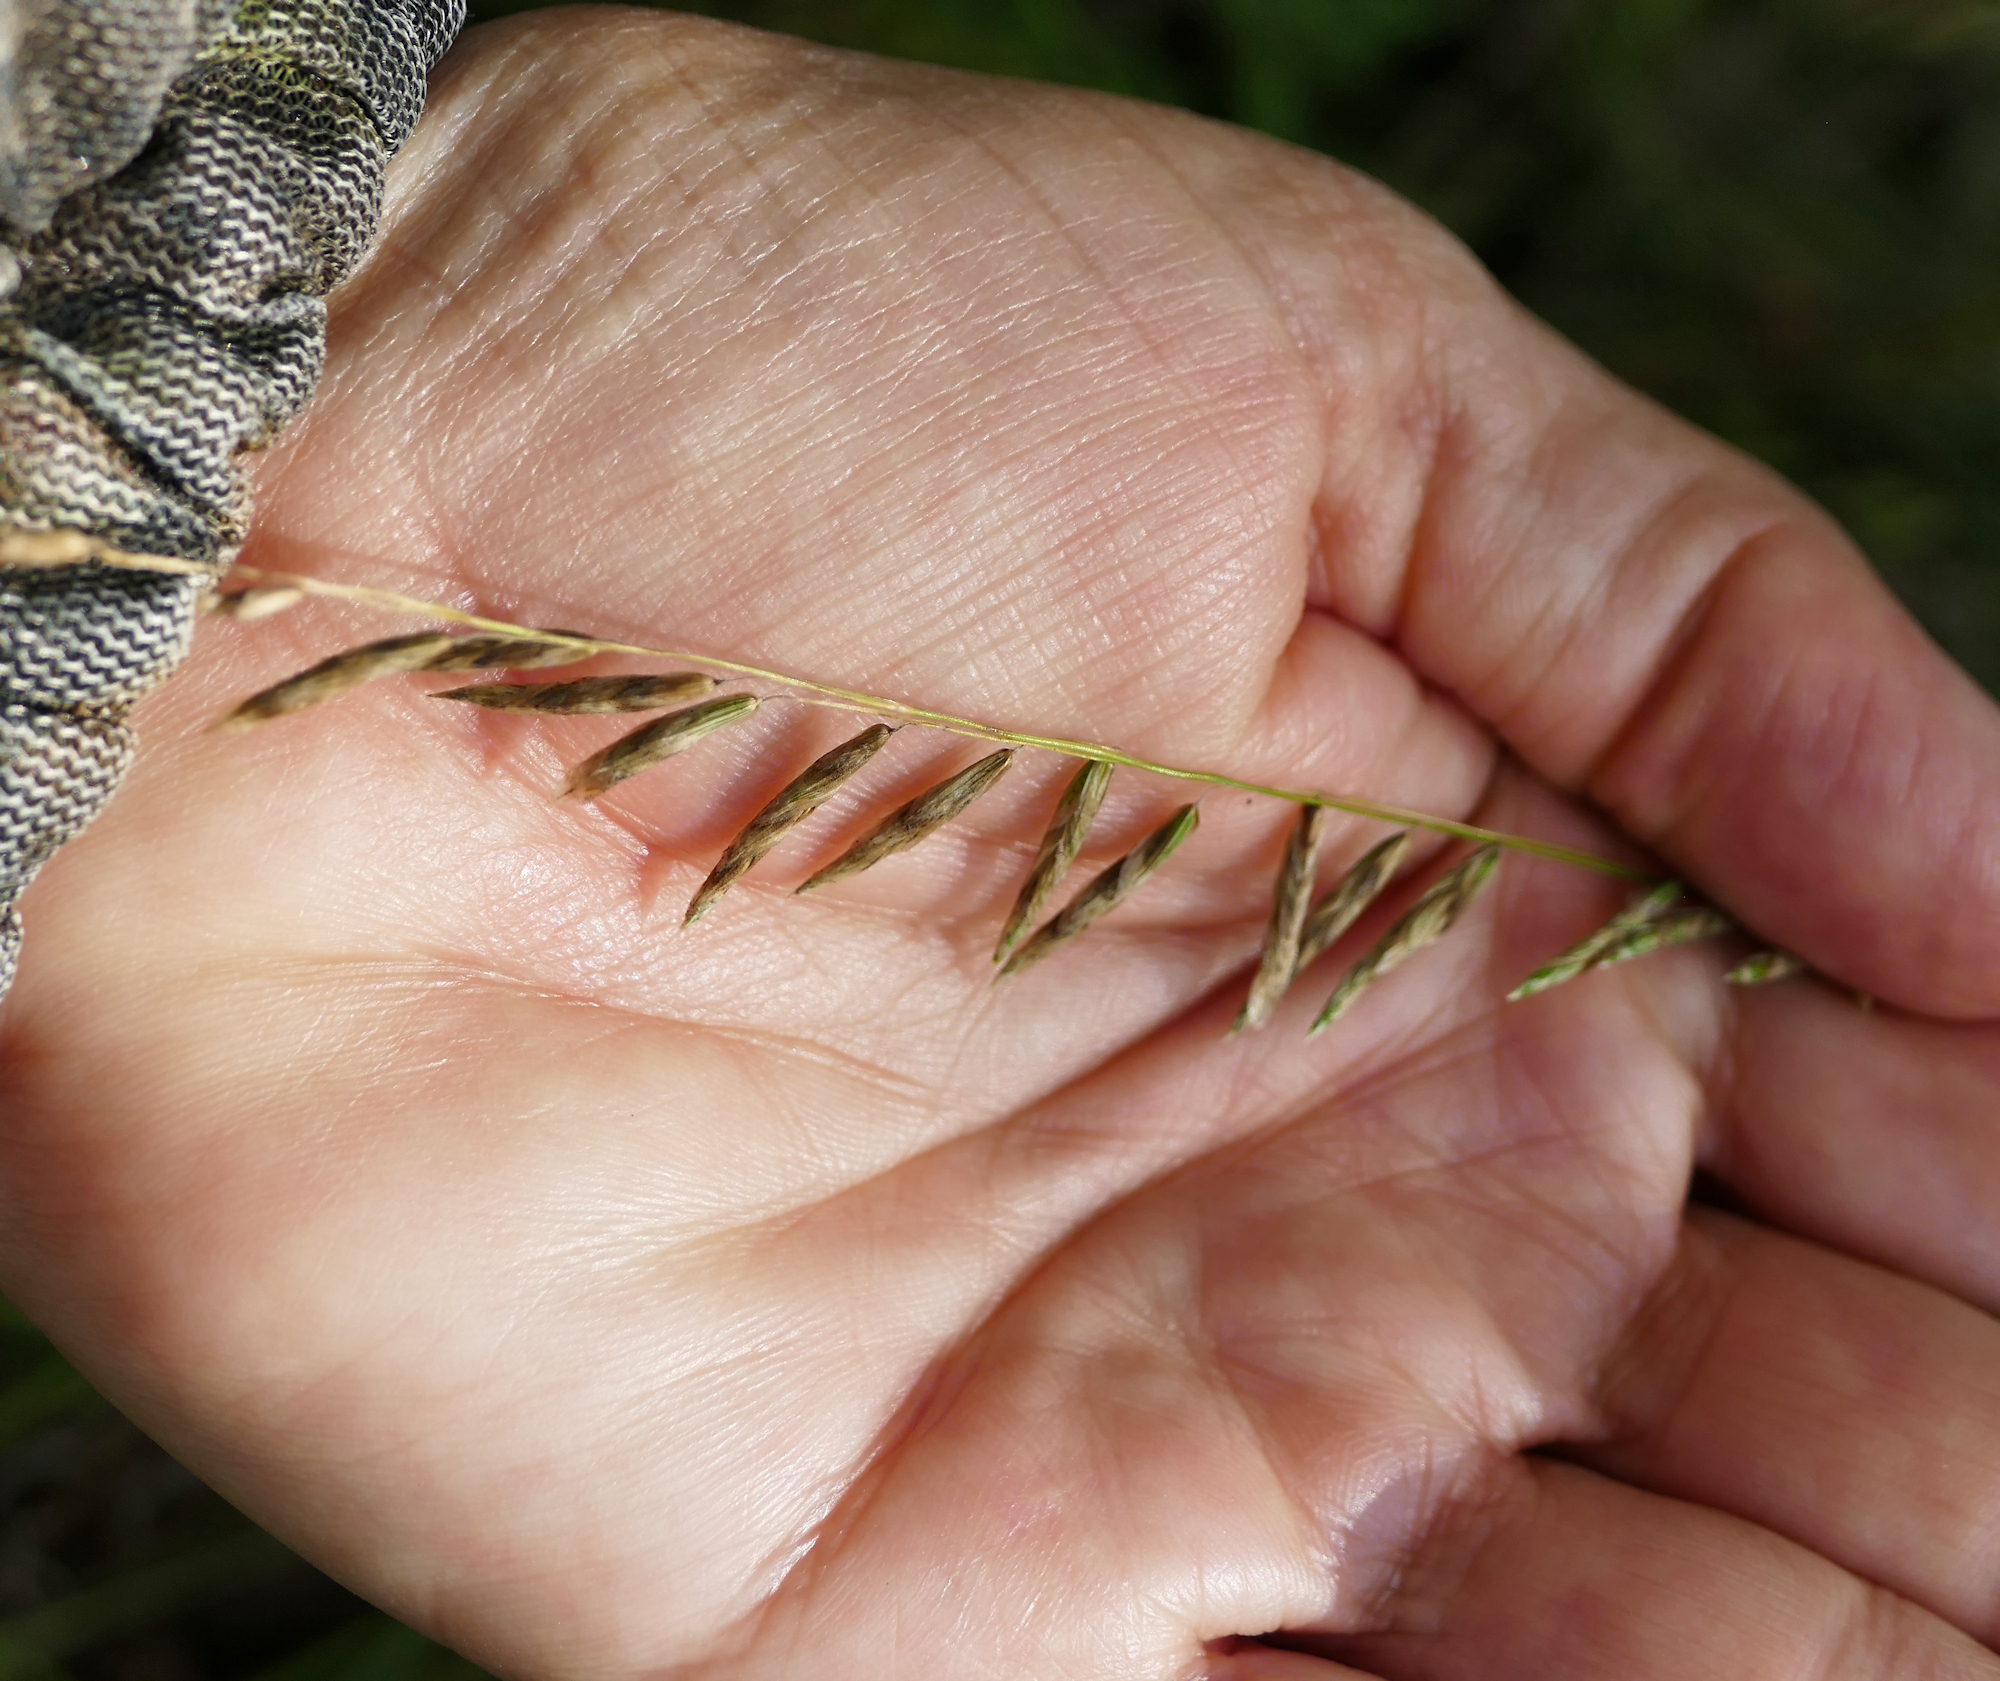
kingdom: Plantae
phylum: Tracheophyta
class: Liliopsida
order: Poales
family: Poaceae
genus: Melica
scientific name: Melica porteri
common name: Porter's melic
